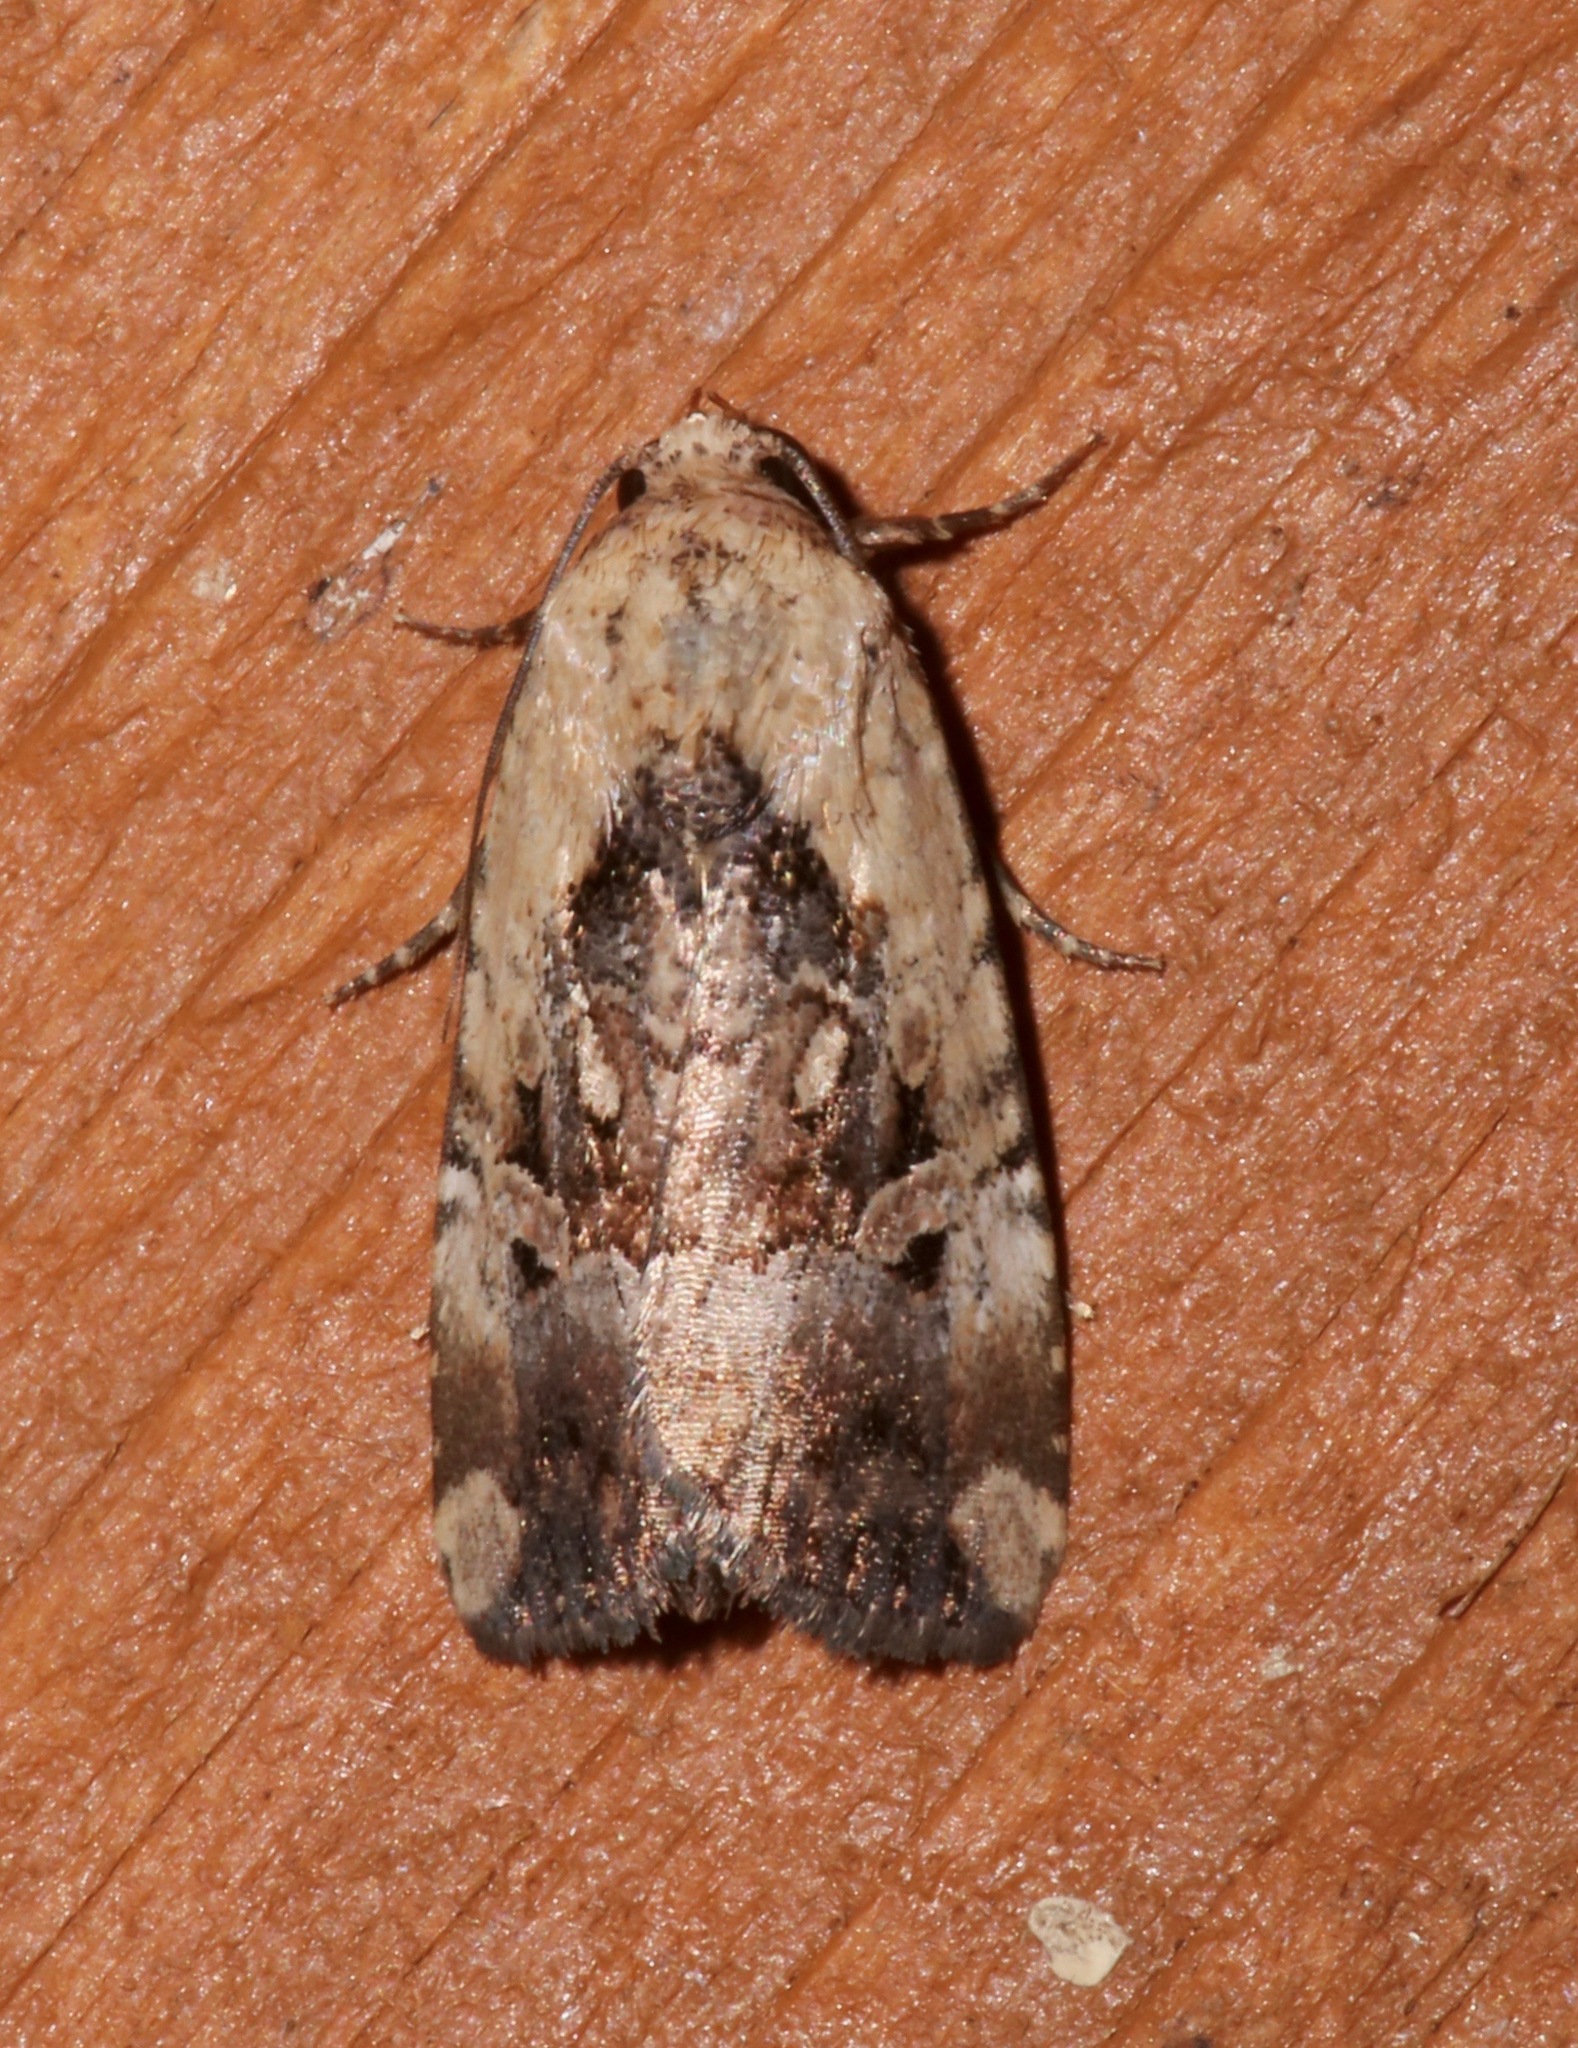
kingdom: Animalia
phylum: Arthropoda
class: Insecta
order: Lepidoptera
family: Noctuidae
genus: Elaphria
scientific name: Elaphria chalcedonia
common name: Chalcedony midget
